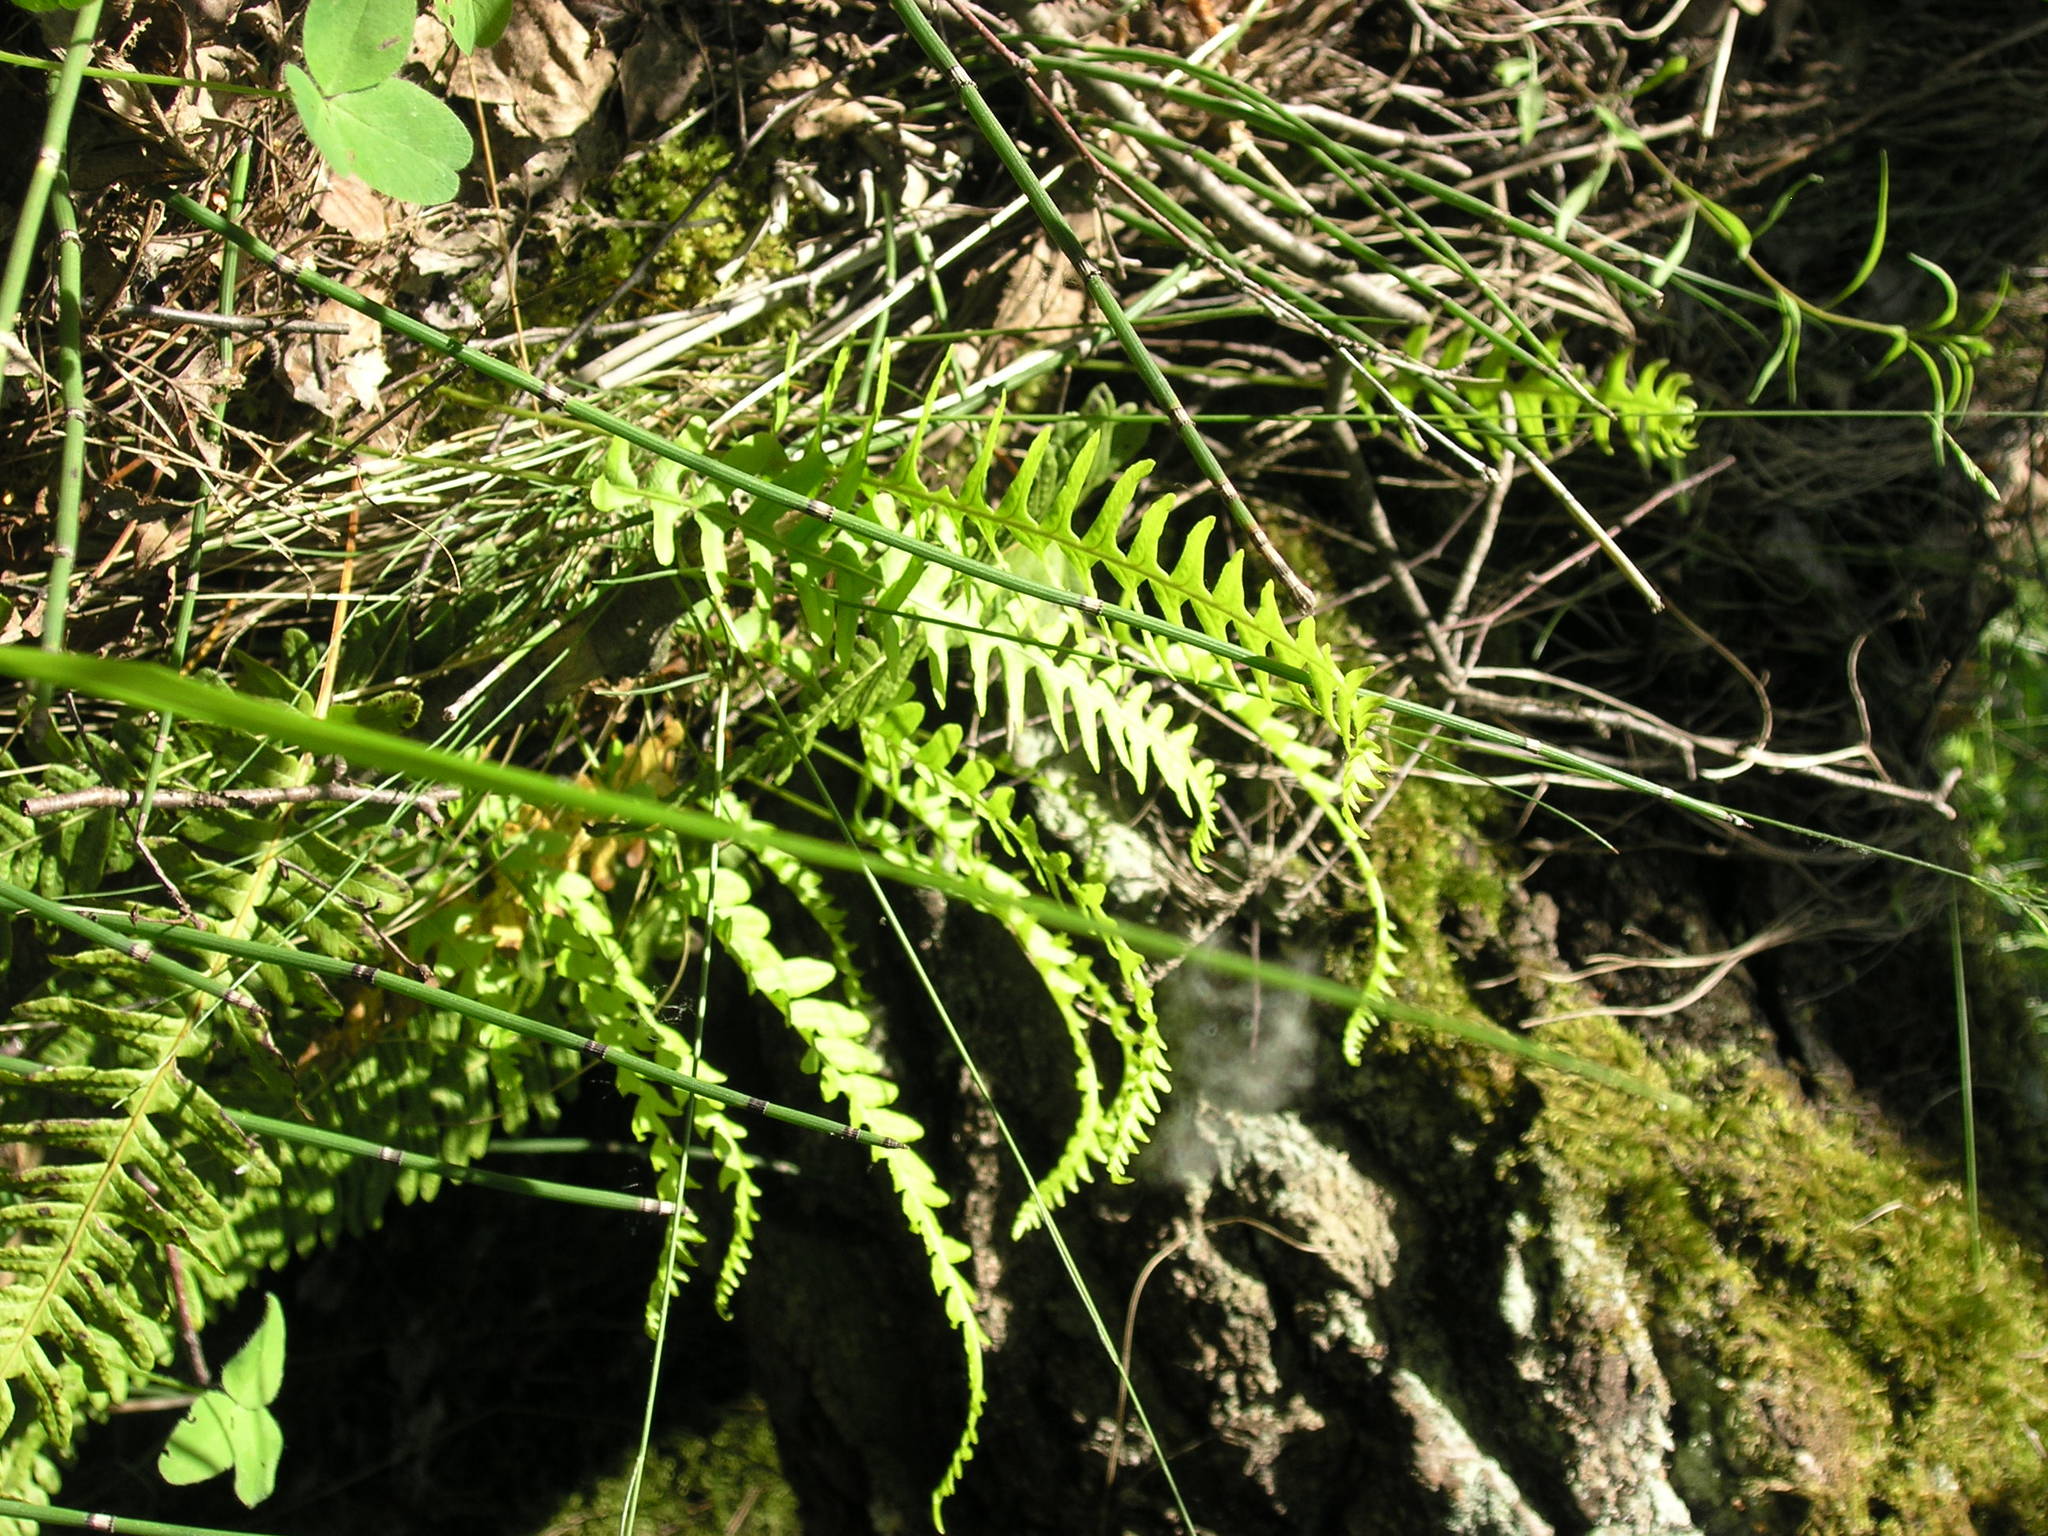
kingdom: Plantae
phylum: Tracheophyta
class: Polypodiopsida
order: Polypodiales
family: Polypodiaceae
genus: Polypodium
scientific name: Polypodium vulgare
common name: Common polypody
